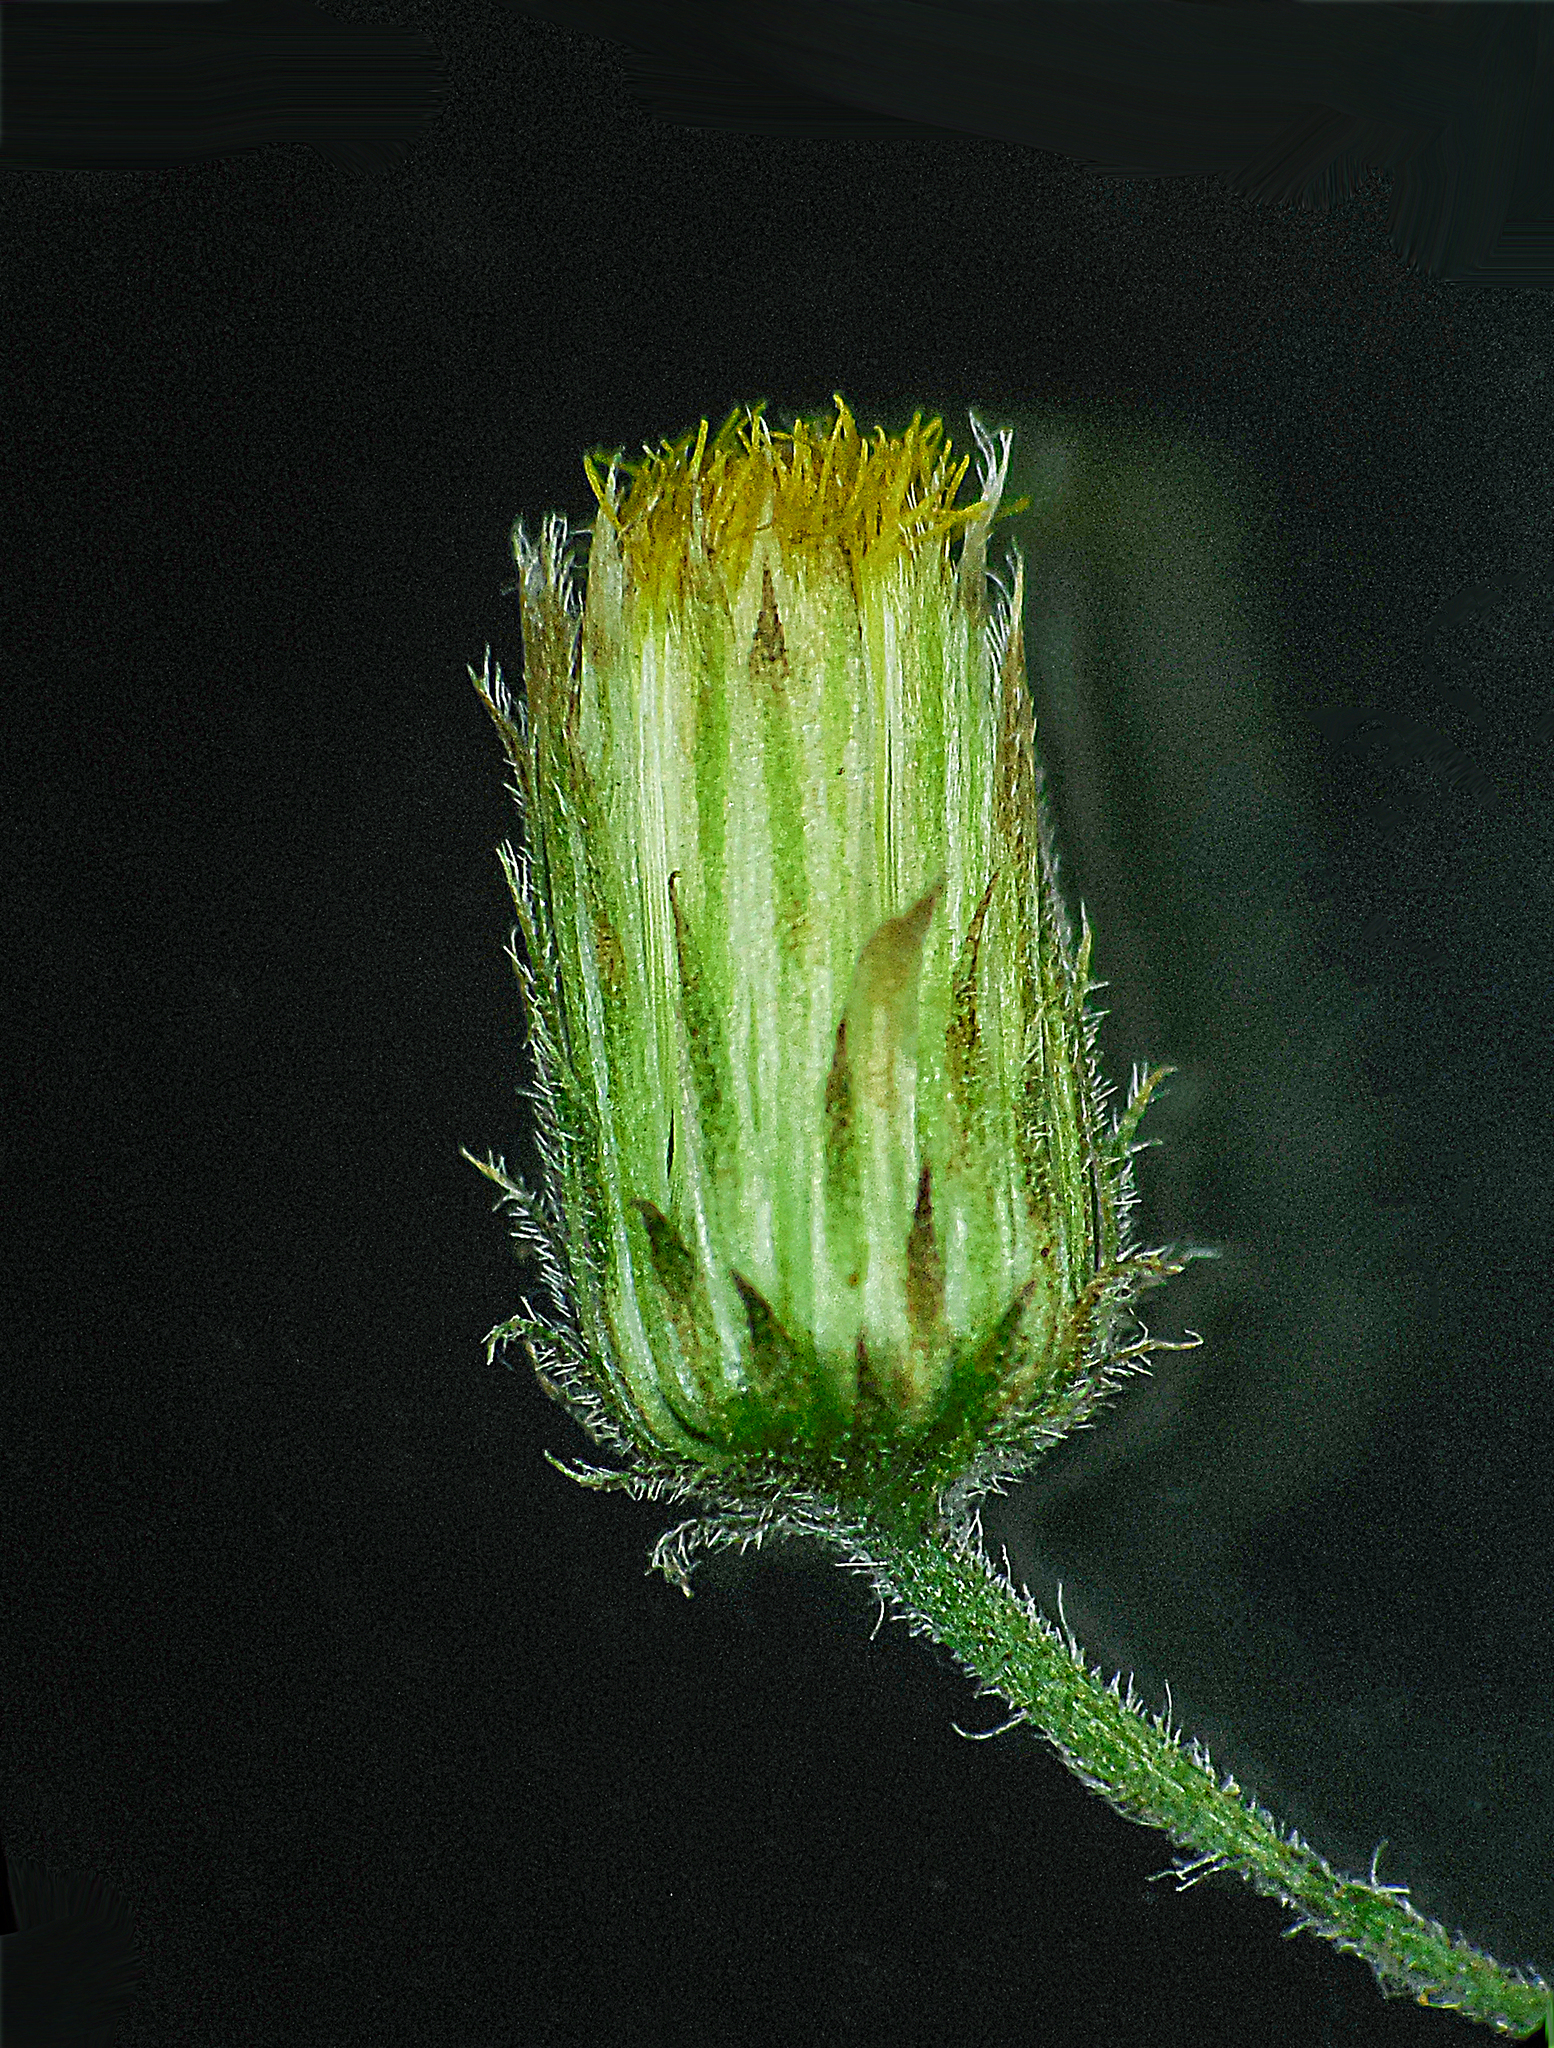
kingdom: Plantae
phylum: Tracheophyta
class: Magnoliopsida
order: Asterales
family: Asteraceae
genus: Pluchea
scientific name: Pluchea paniculata
